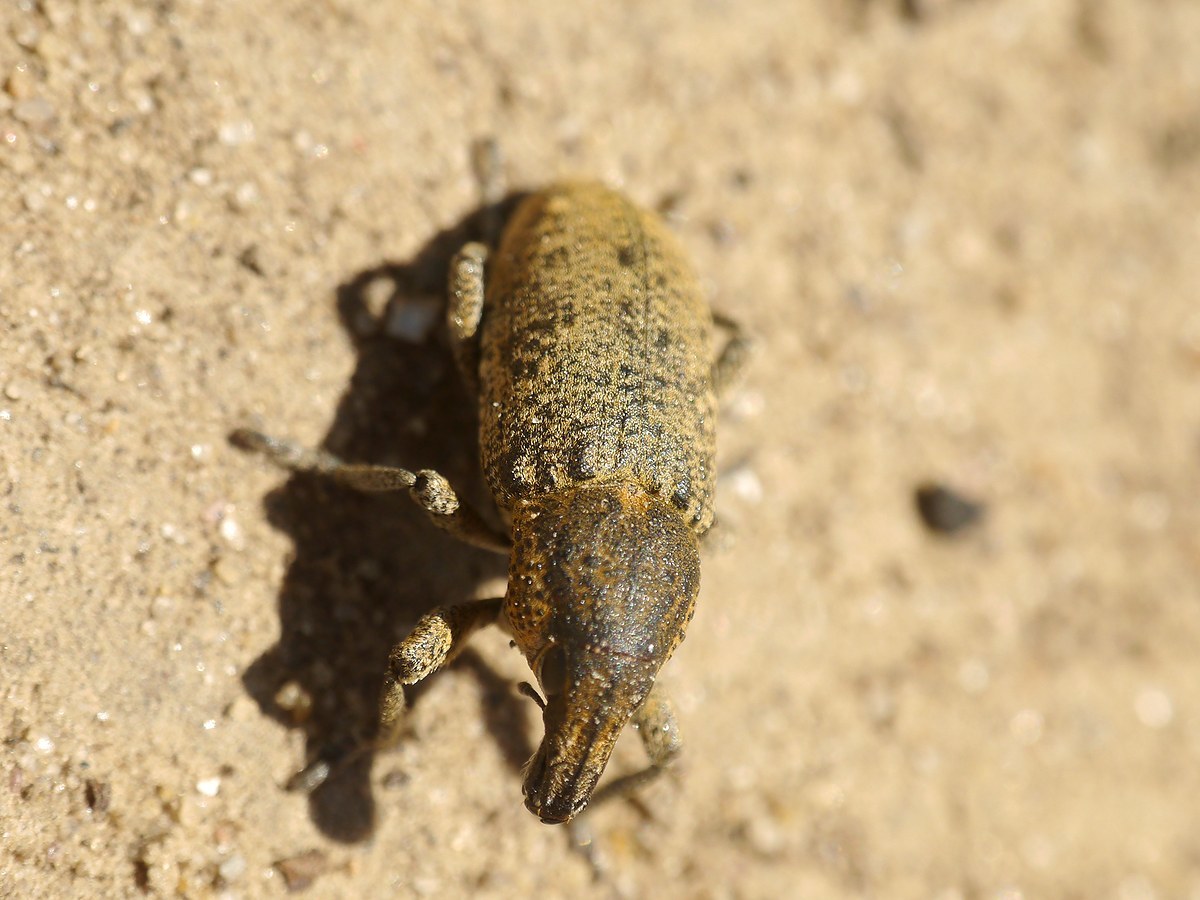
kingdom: Animalia
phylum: Arthropoda
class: Insecta
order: Coleoptera
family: Curculionidae
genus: Maximus
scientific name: Maximus strabus
